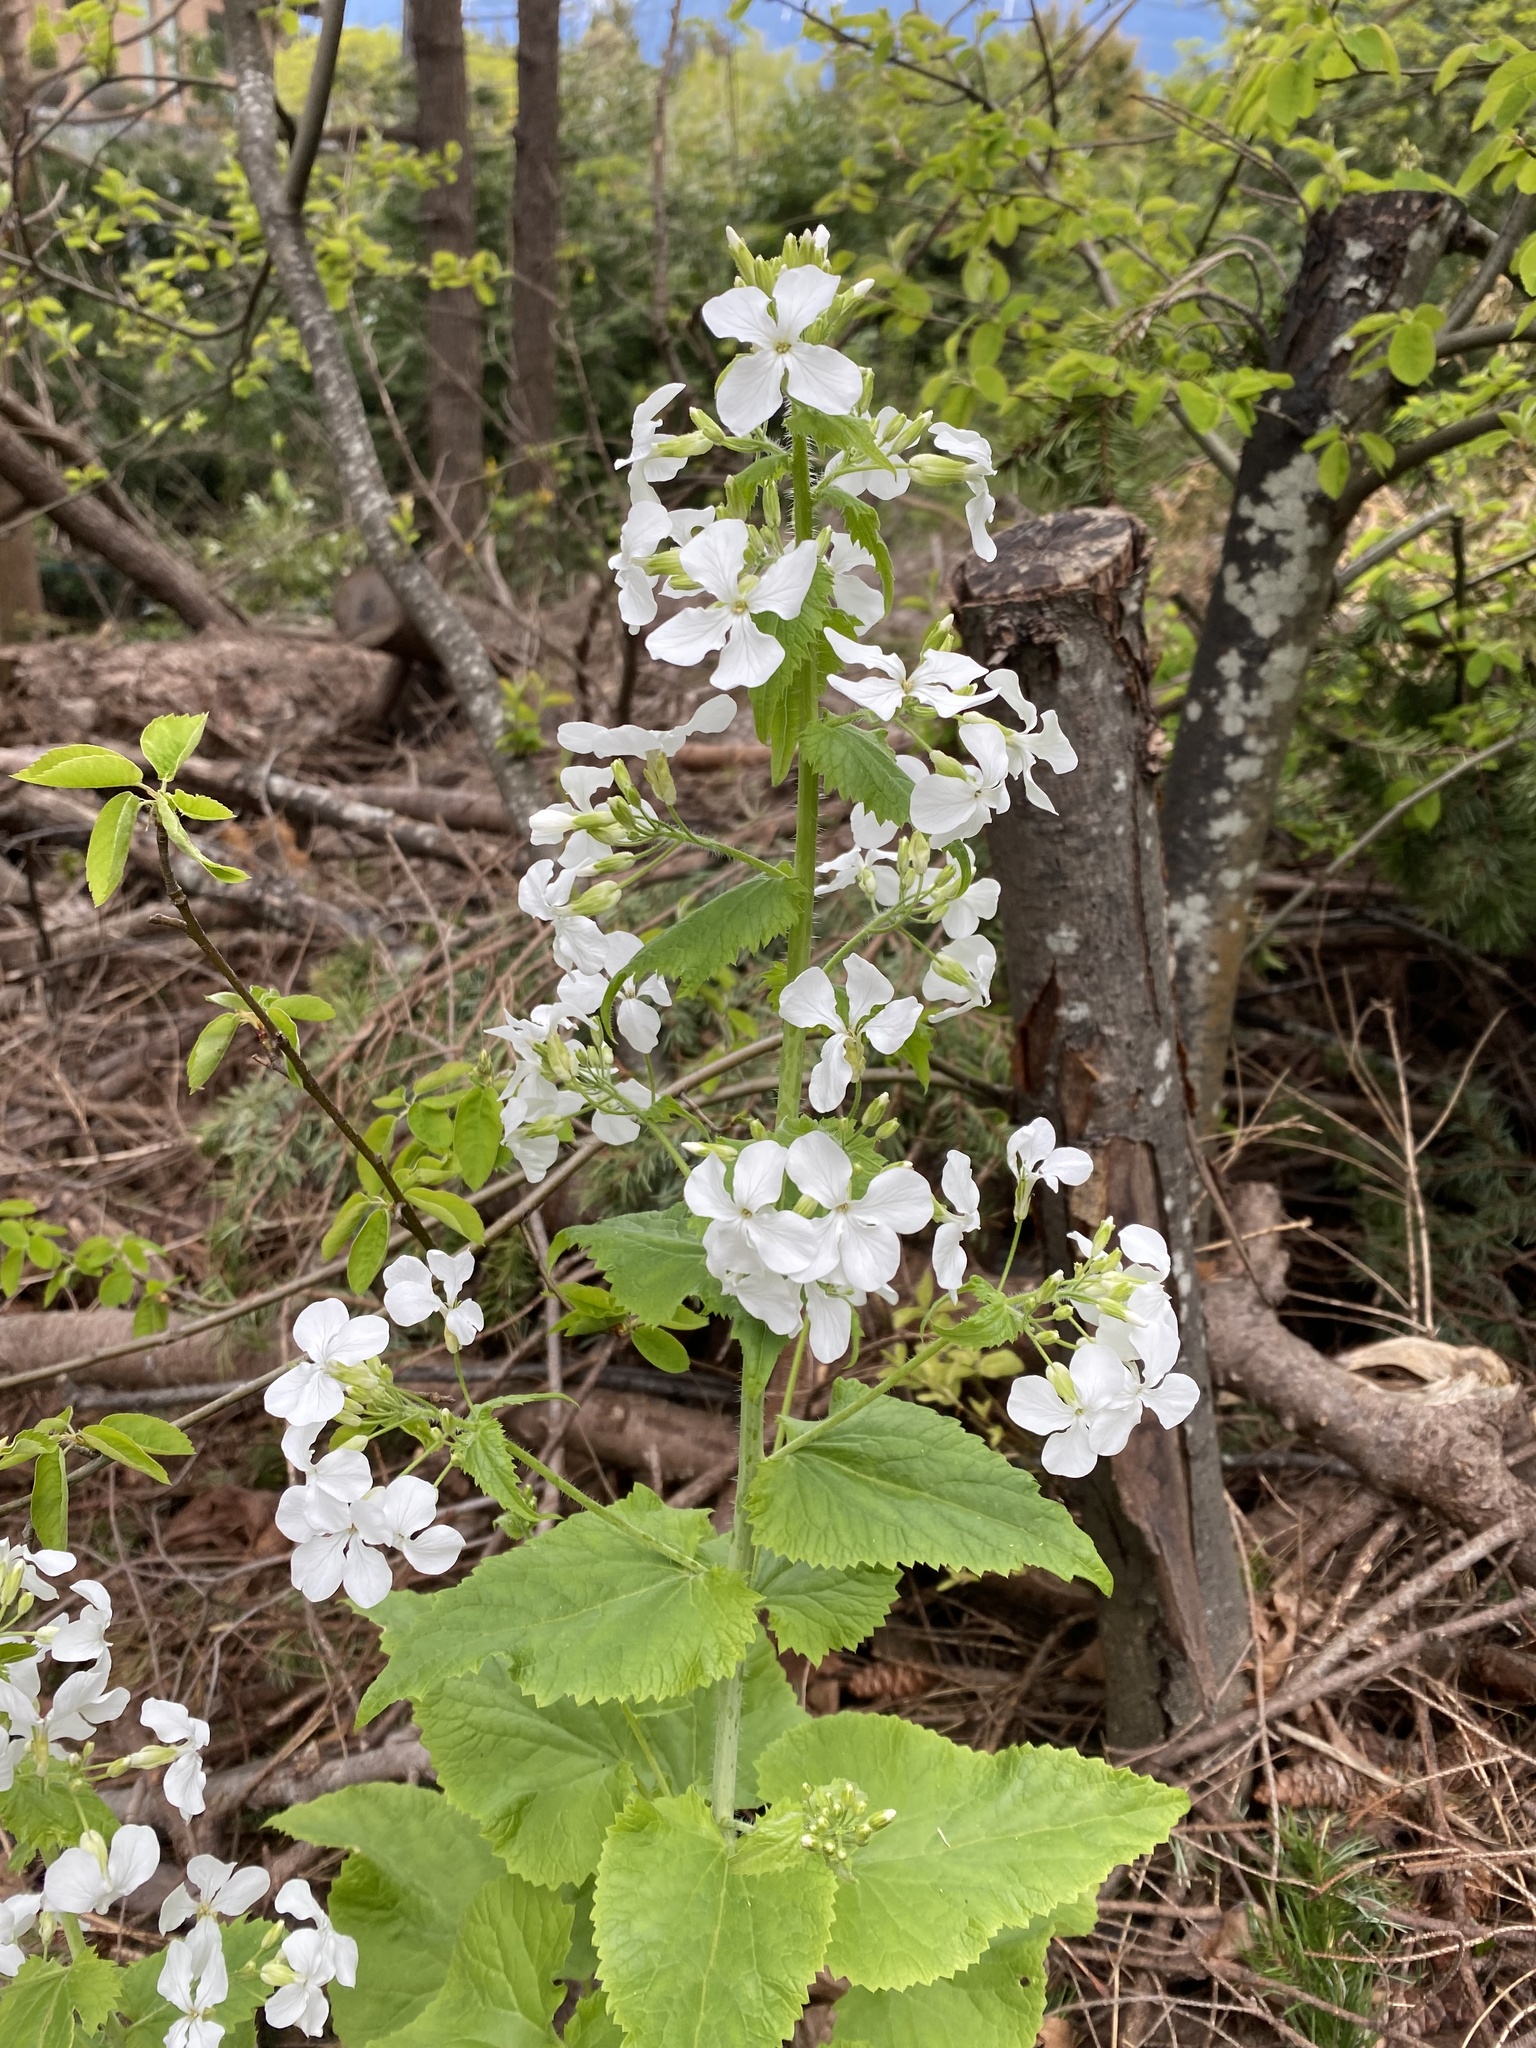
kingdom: Plantae
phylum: Tracheophyta
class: Magnoliopsida
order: Brassicales
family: Brassicaceae
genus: Lunaria
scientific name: Lunaria annua
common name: Honesty
